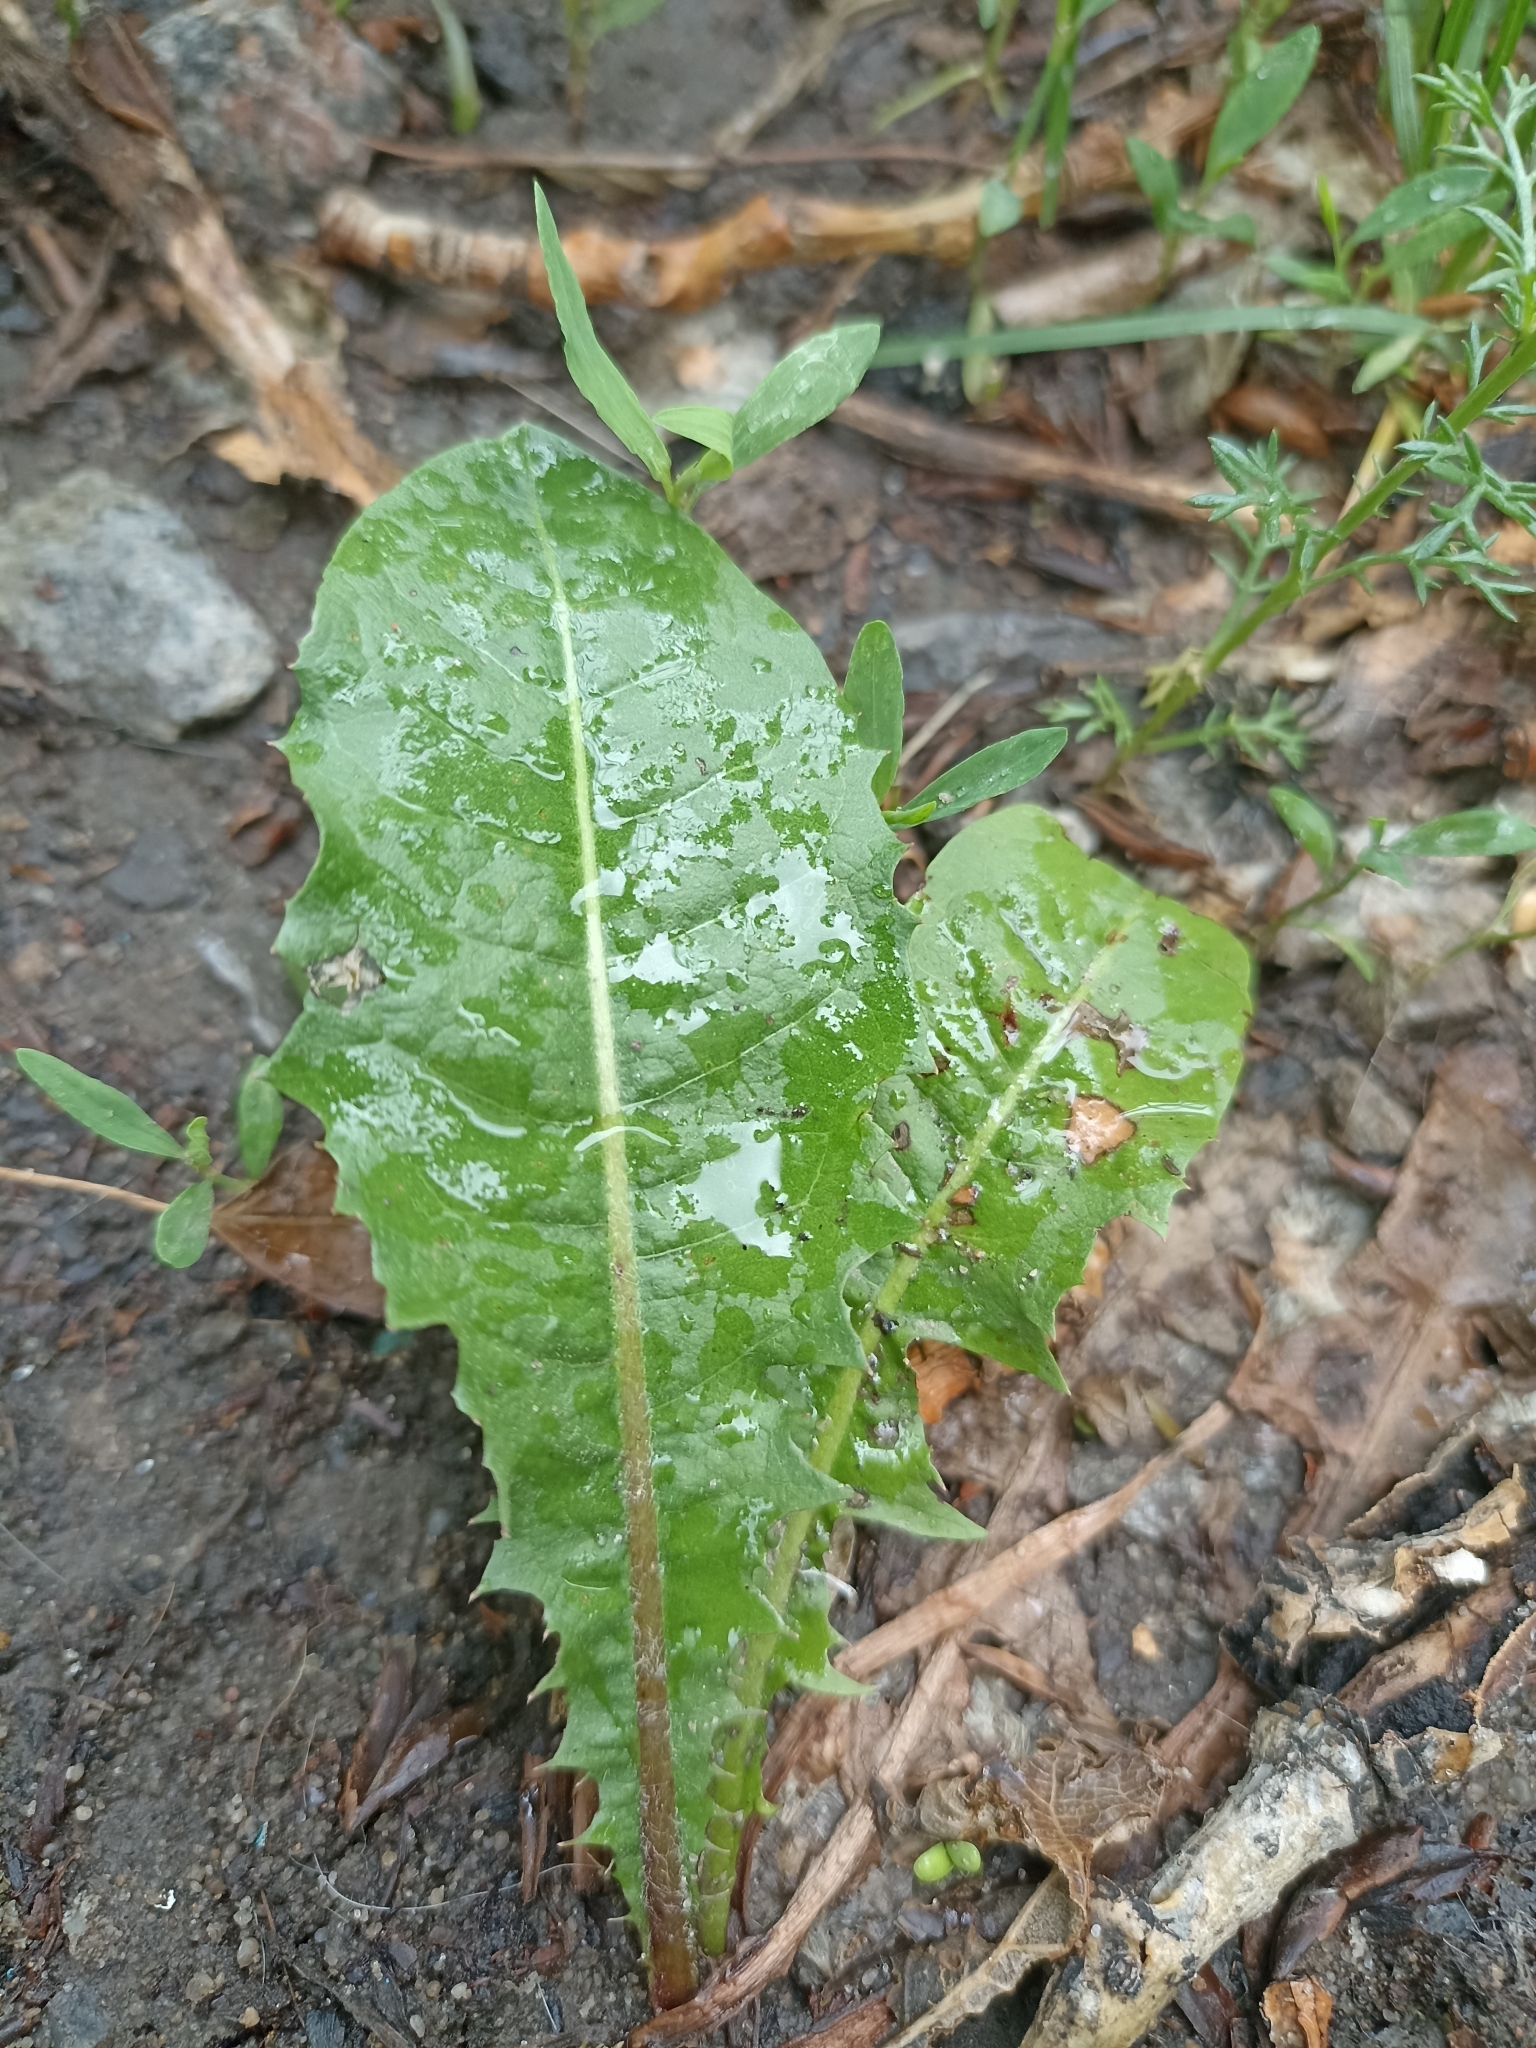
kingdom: Plantae
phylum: Tracheophyta
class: Magnoliopsida
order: Asterales
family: Asteraceae
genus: Taraxacum
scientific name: Taraxacum officinale
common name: Common dandelion
